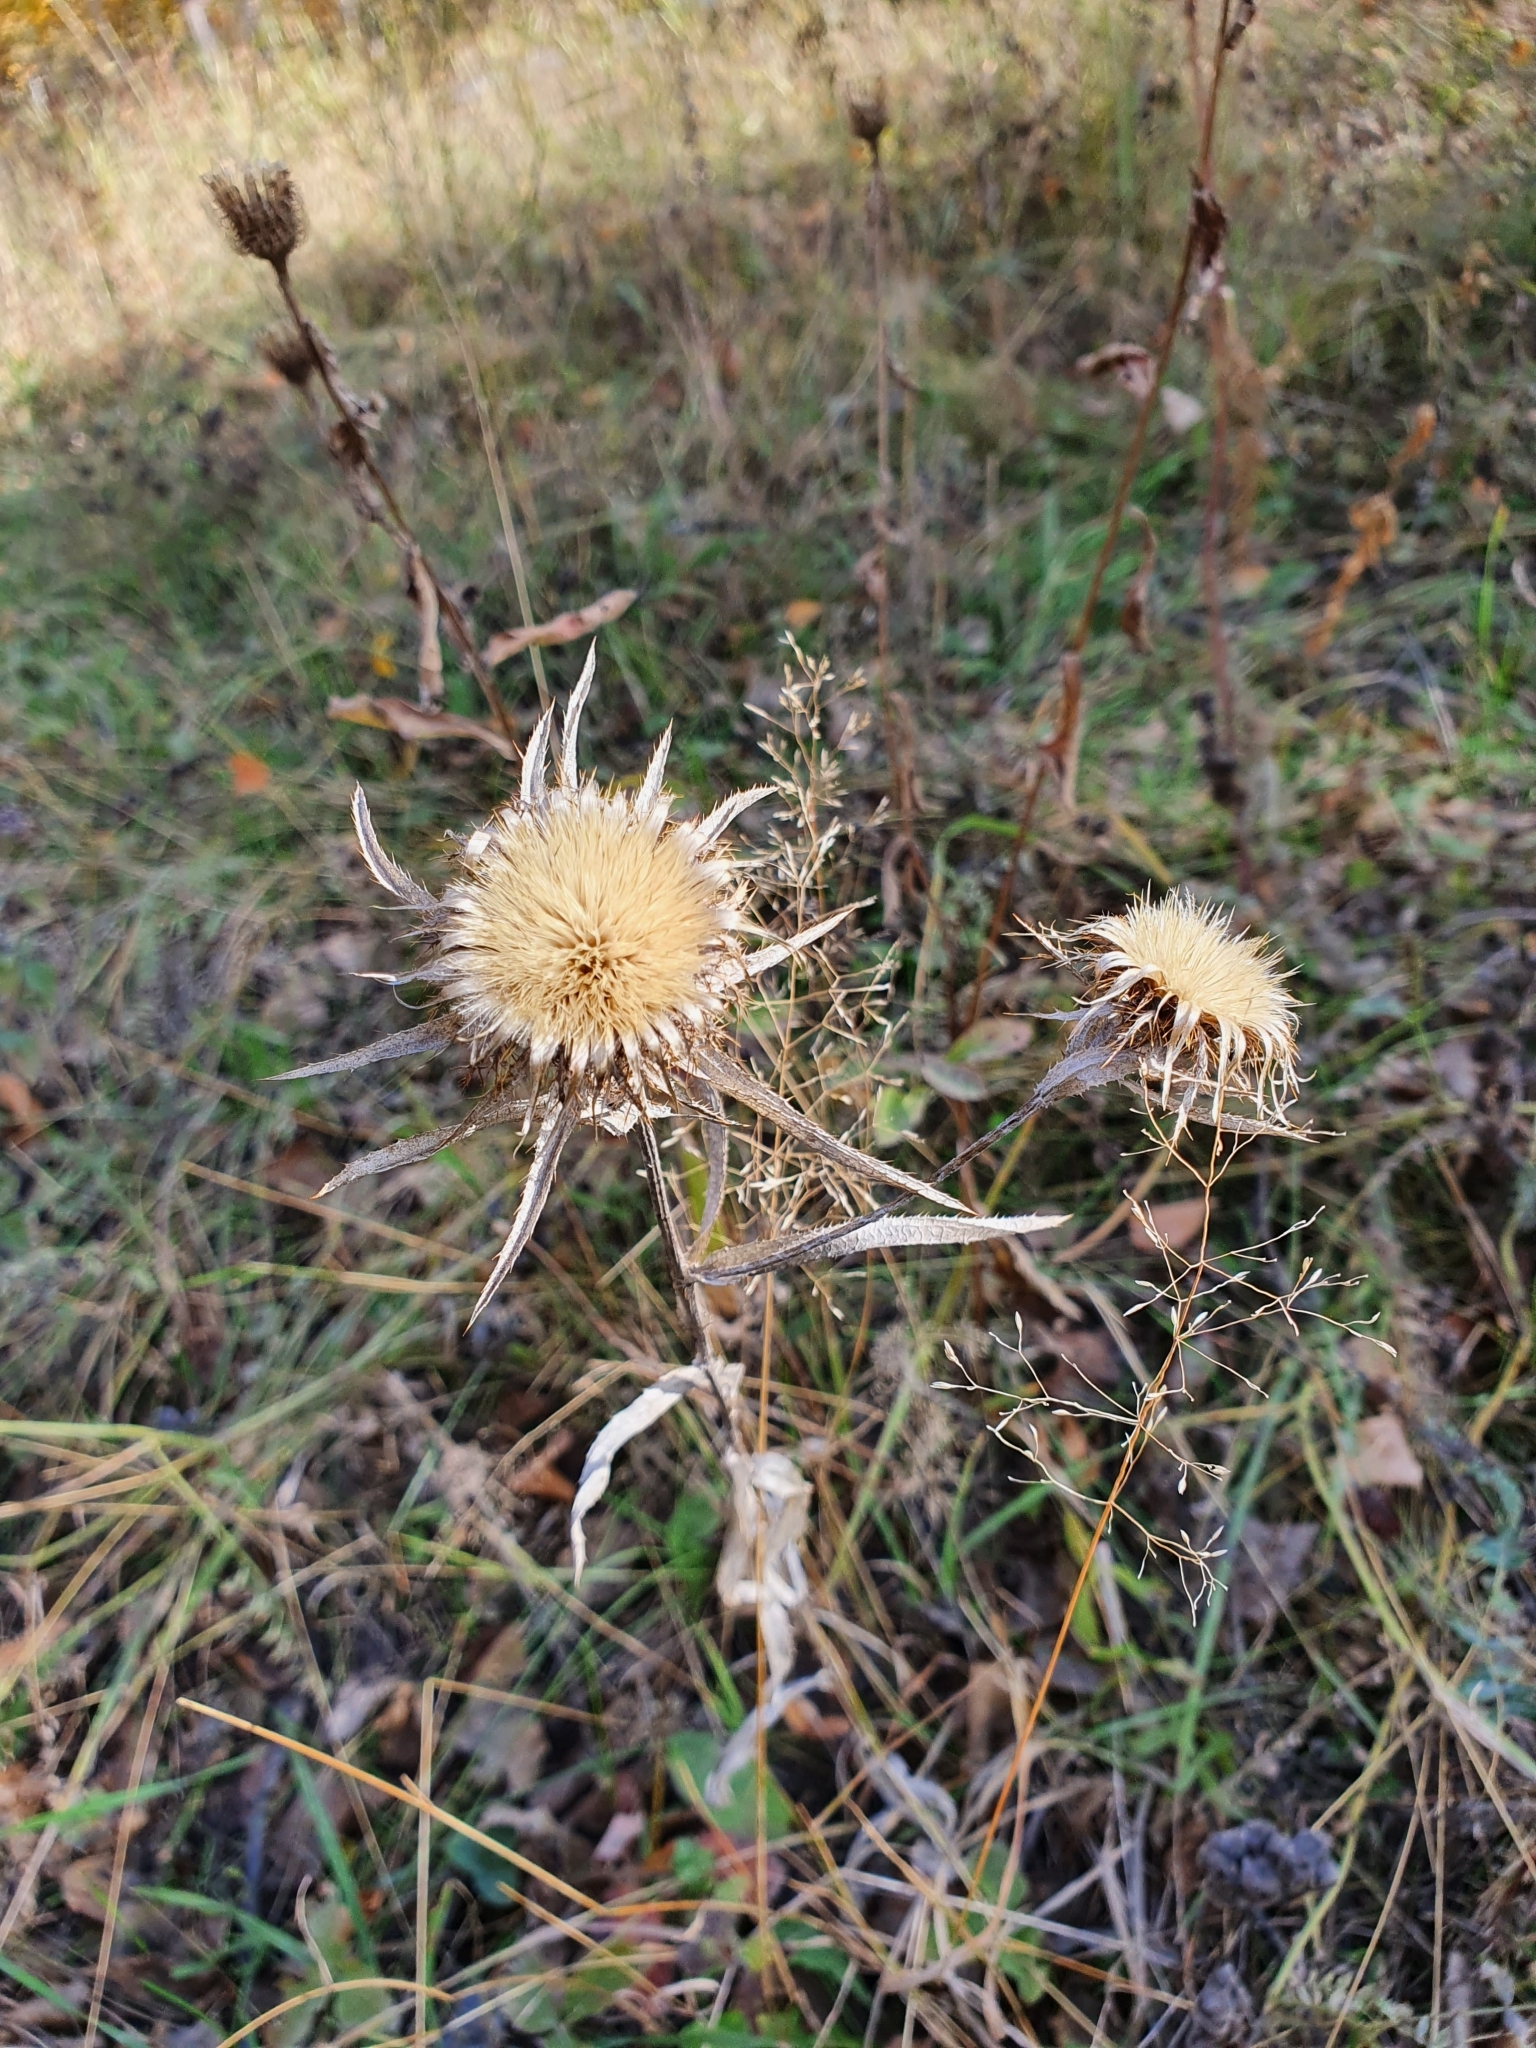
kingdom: Plantae
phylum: Tracheophyta
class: Magnoliopsida
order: Asterales
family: Asteraceae
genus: Carlina
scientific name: Carlina biebersteinii
